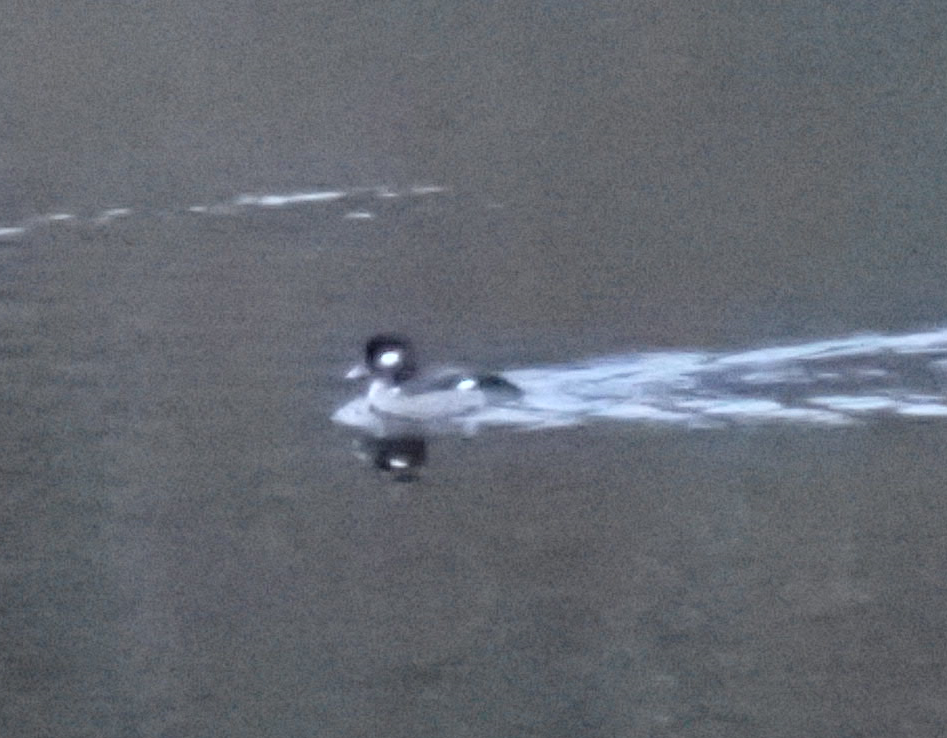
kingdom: Animalia
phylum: Chordata
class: Aves
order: Anseriformes
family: Anatidae
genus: Bucephala
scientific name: Bucephala albeola
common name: Bufflehead
